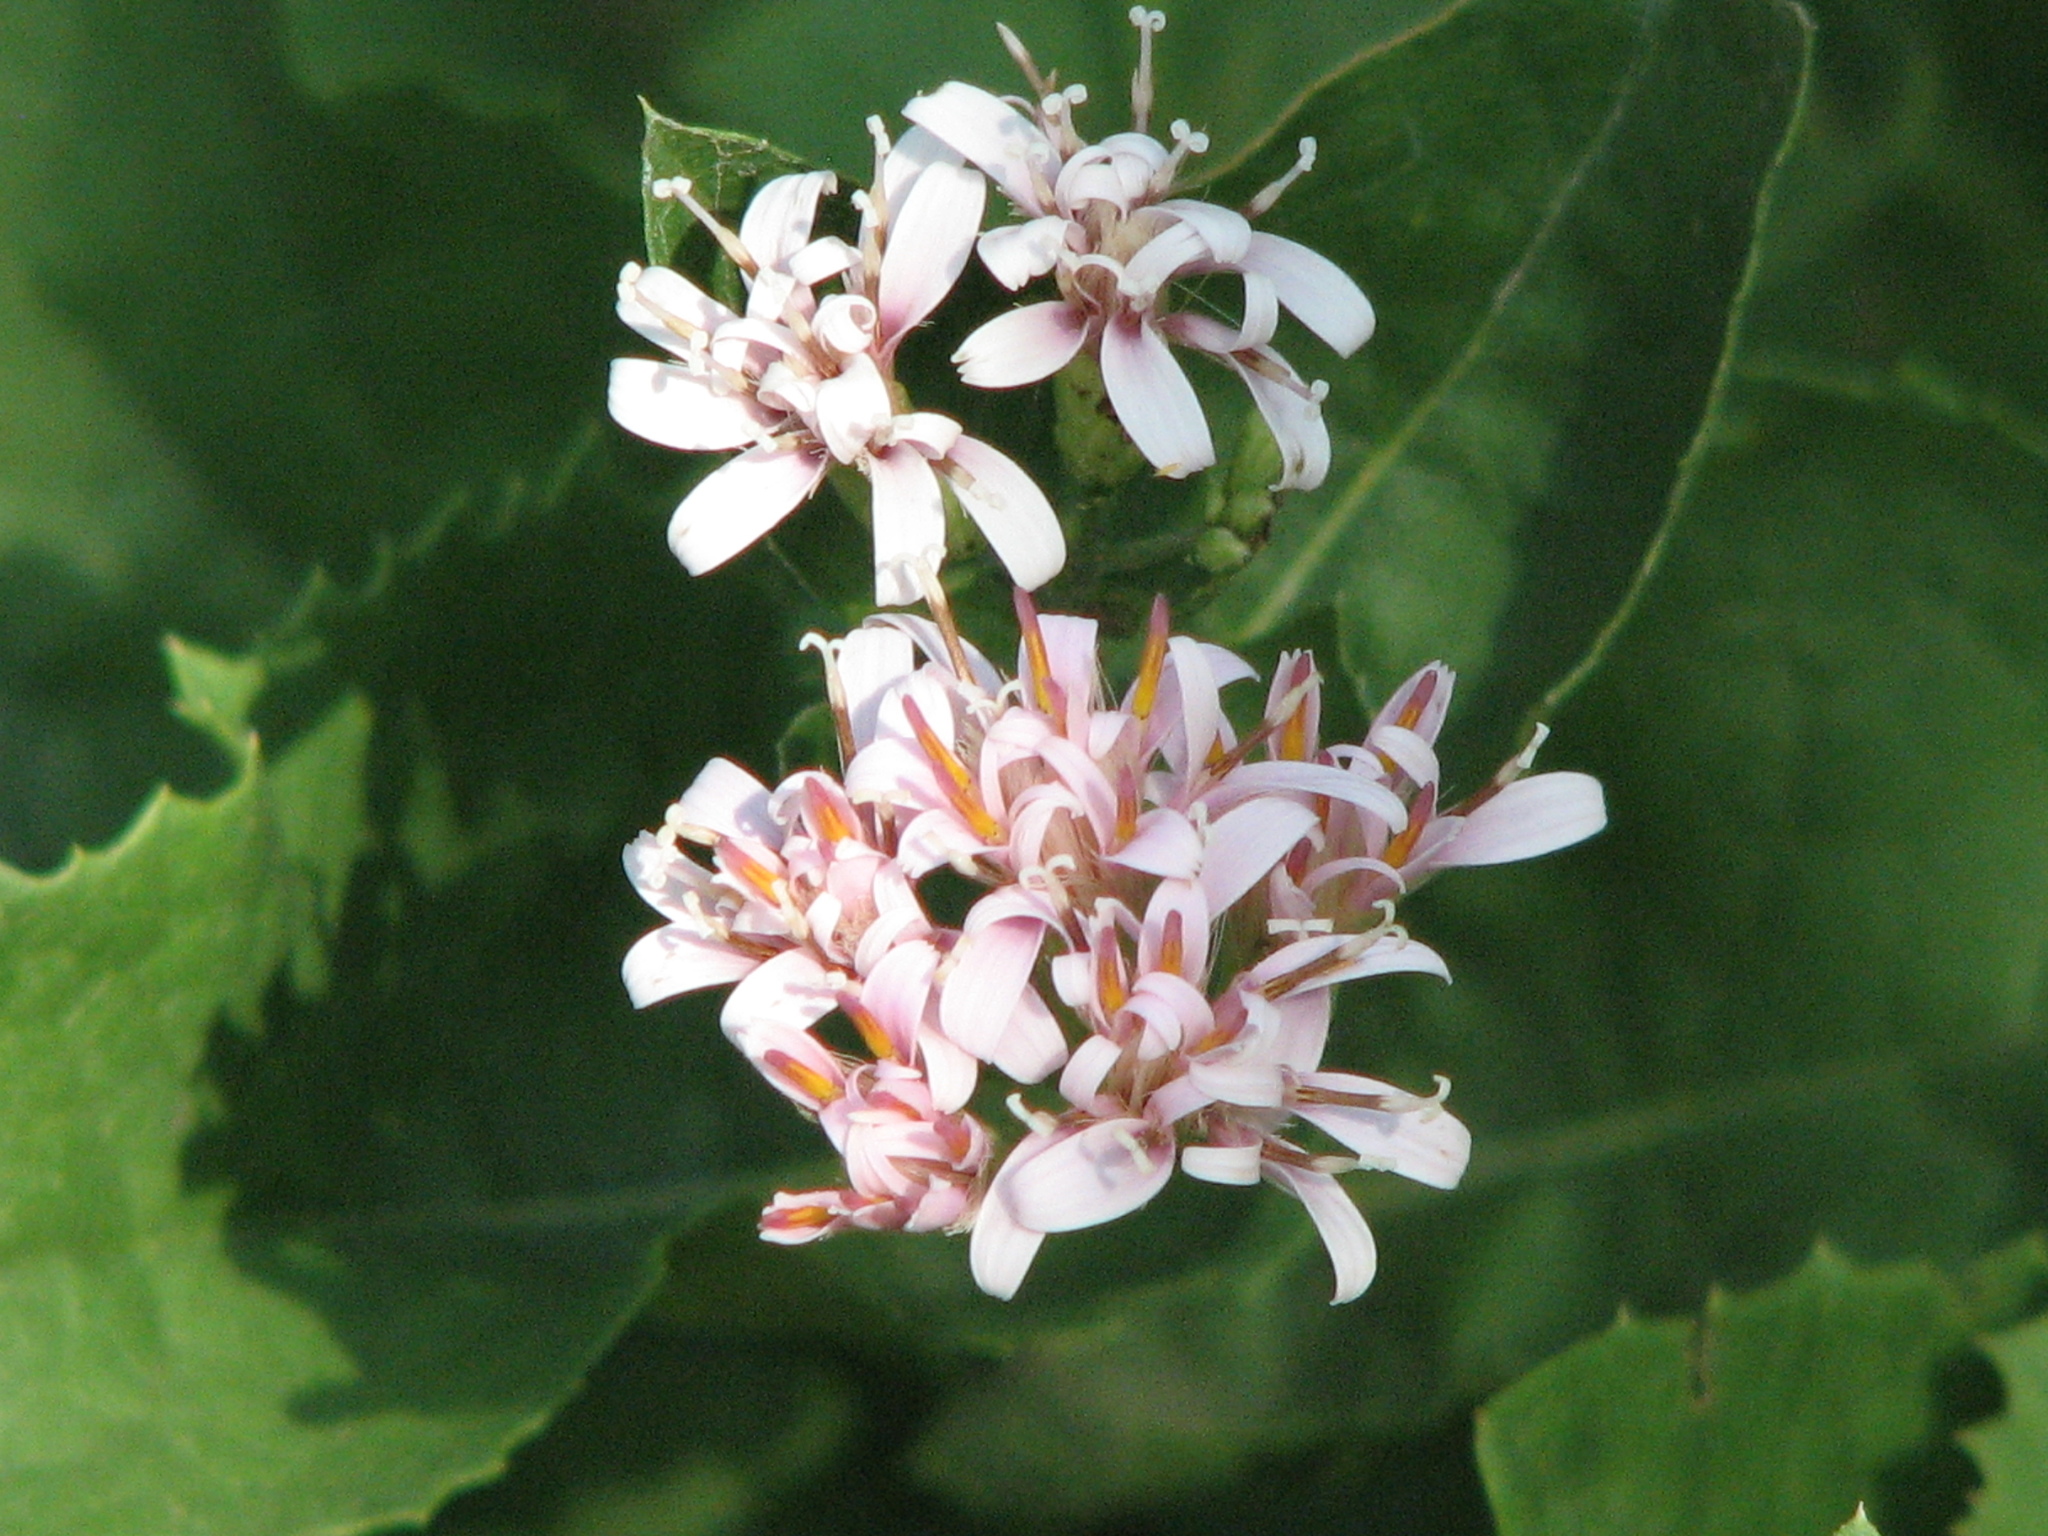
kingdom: Plantae
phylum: Tracheophyta
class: Magnoliopsida
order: Asterales
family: Asteraceae
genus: Acourtia
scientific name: Acourtia wrightii
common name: Brownfoot
